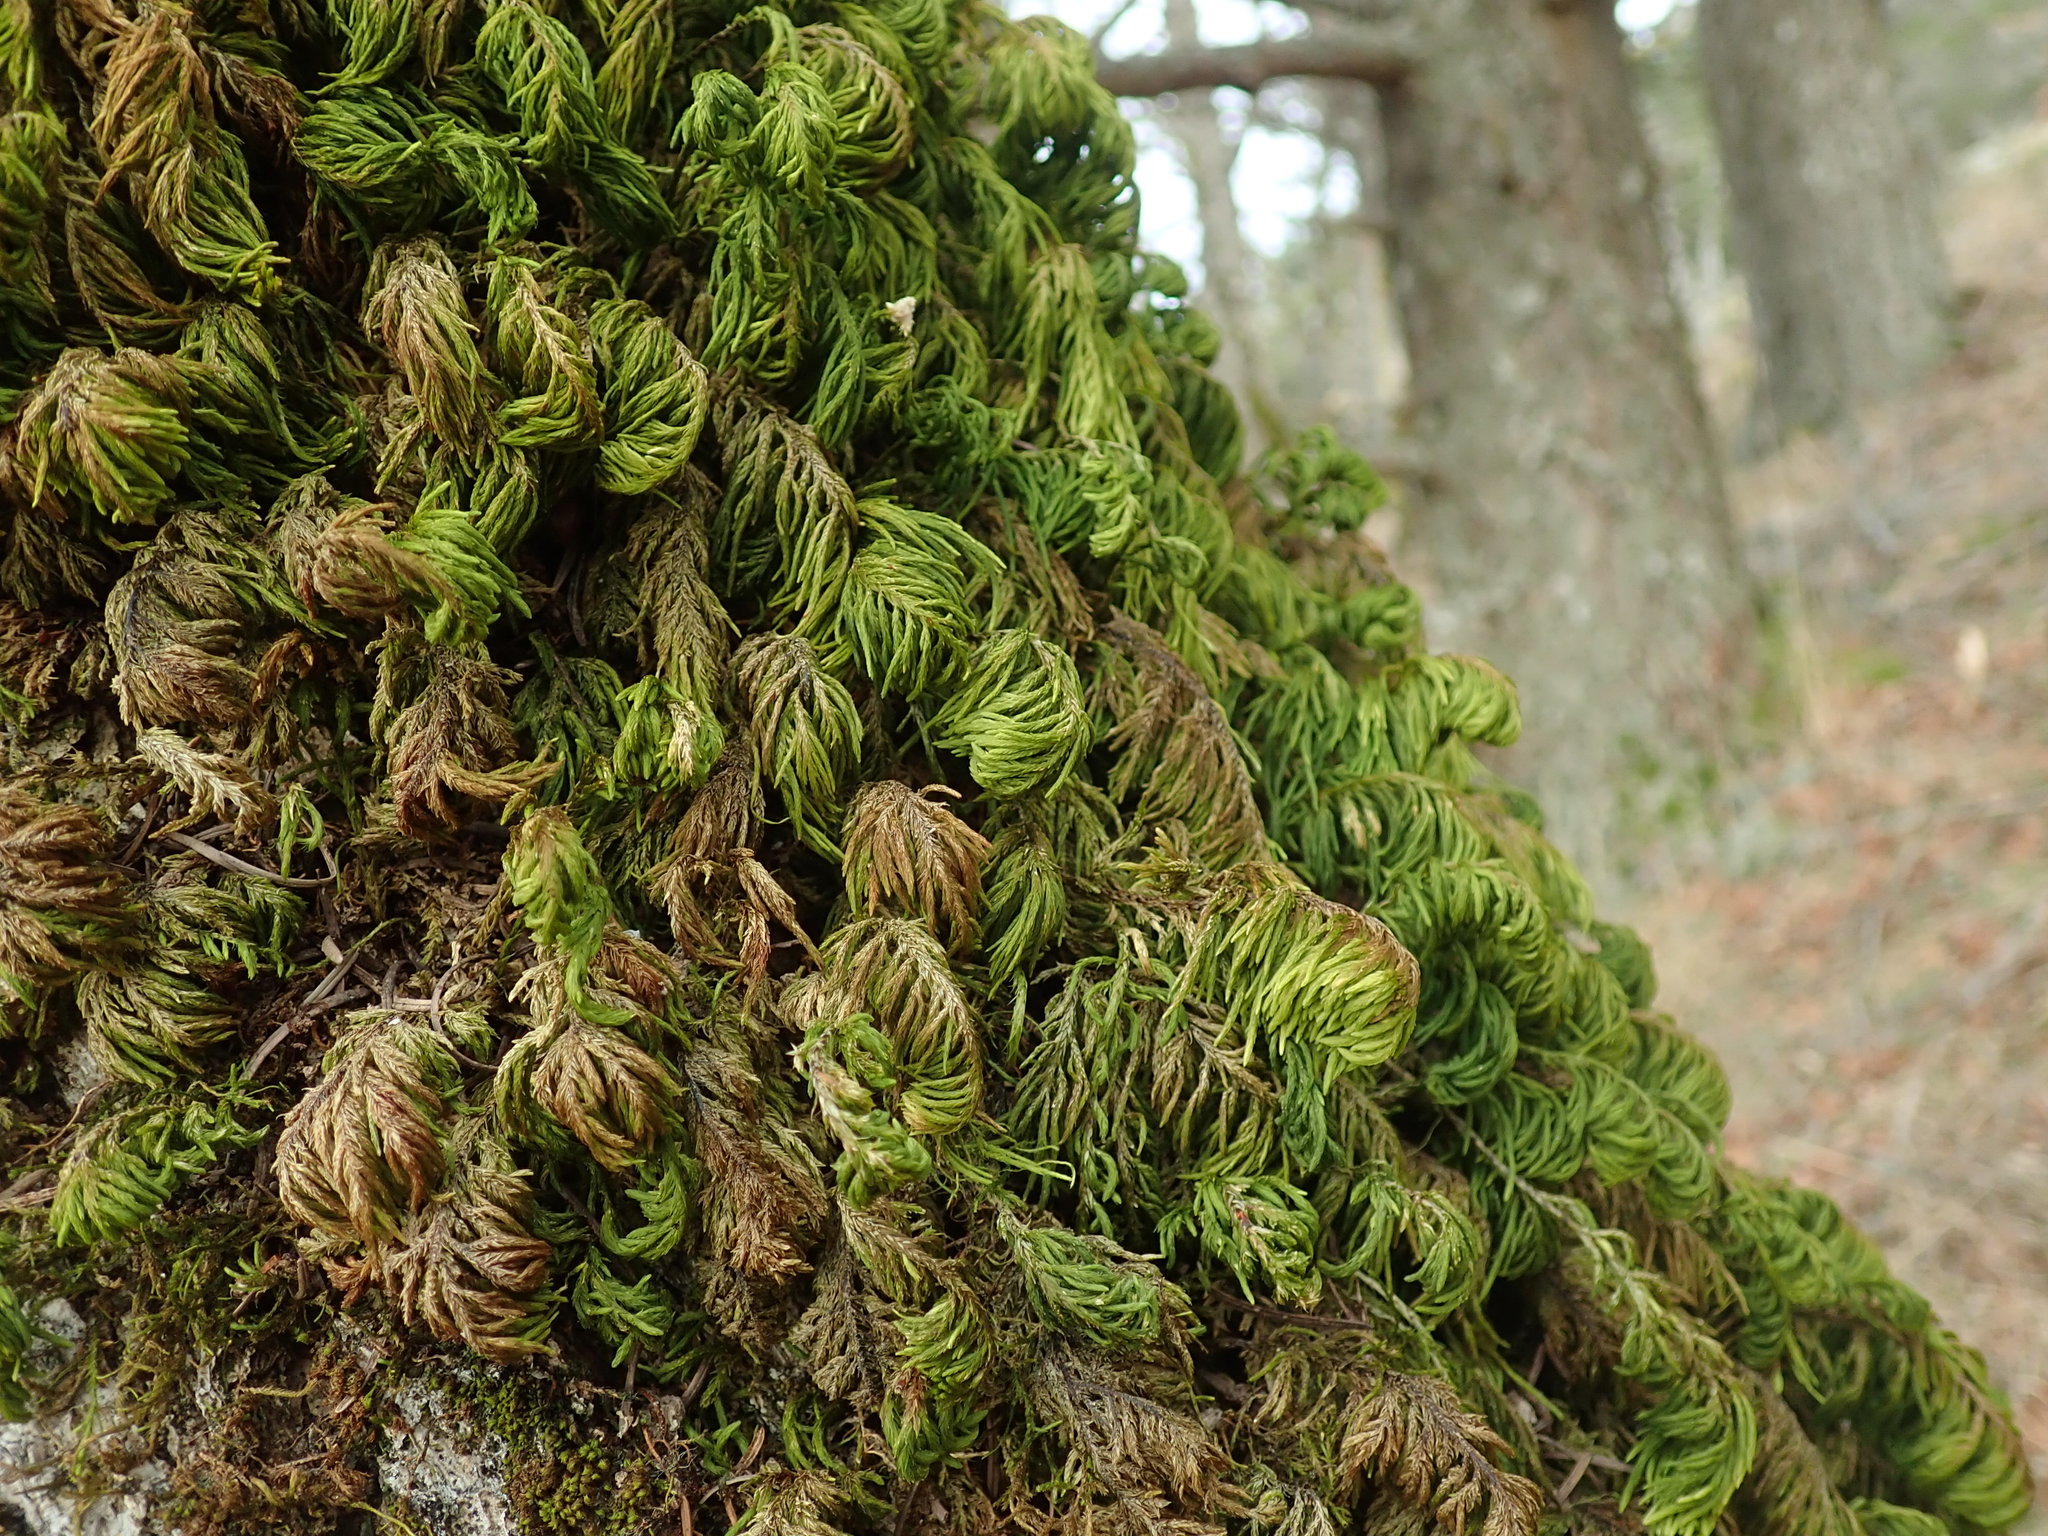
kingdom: Plantae
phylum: Bryophyta
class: Bryopsida
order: Hypnales
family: Cryphaeaceae
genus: Dendroalsia
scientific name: Dendroalsia abietina
